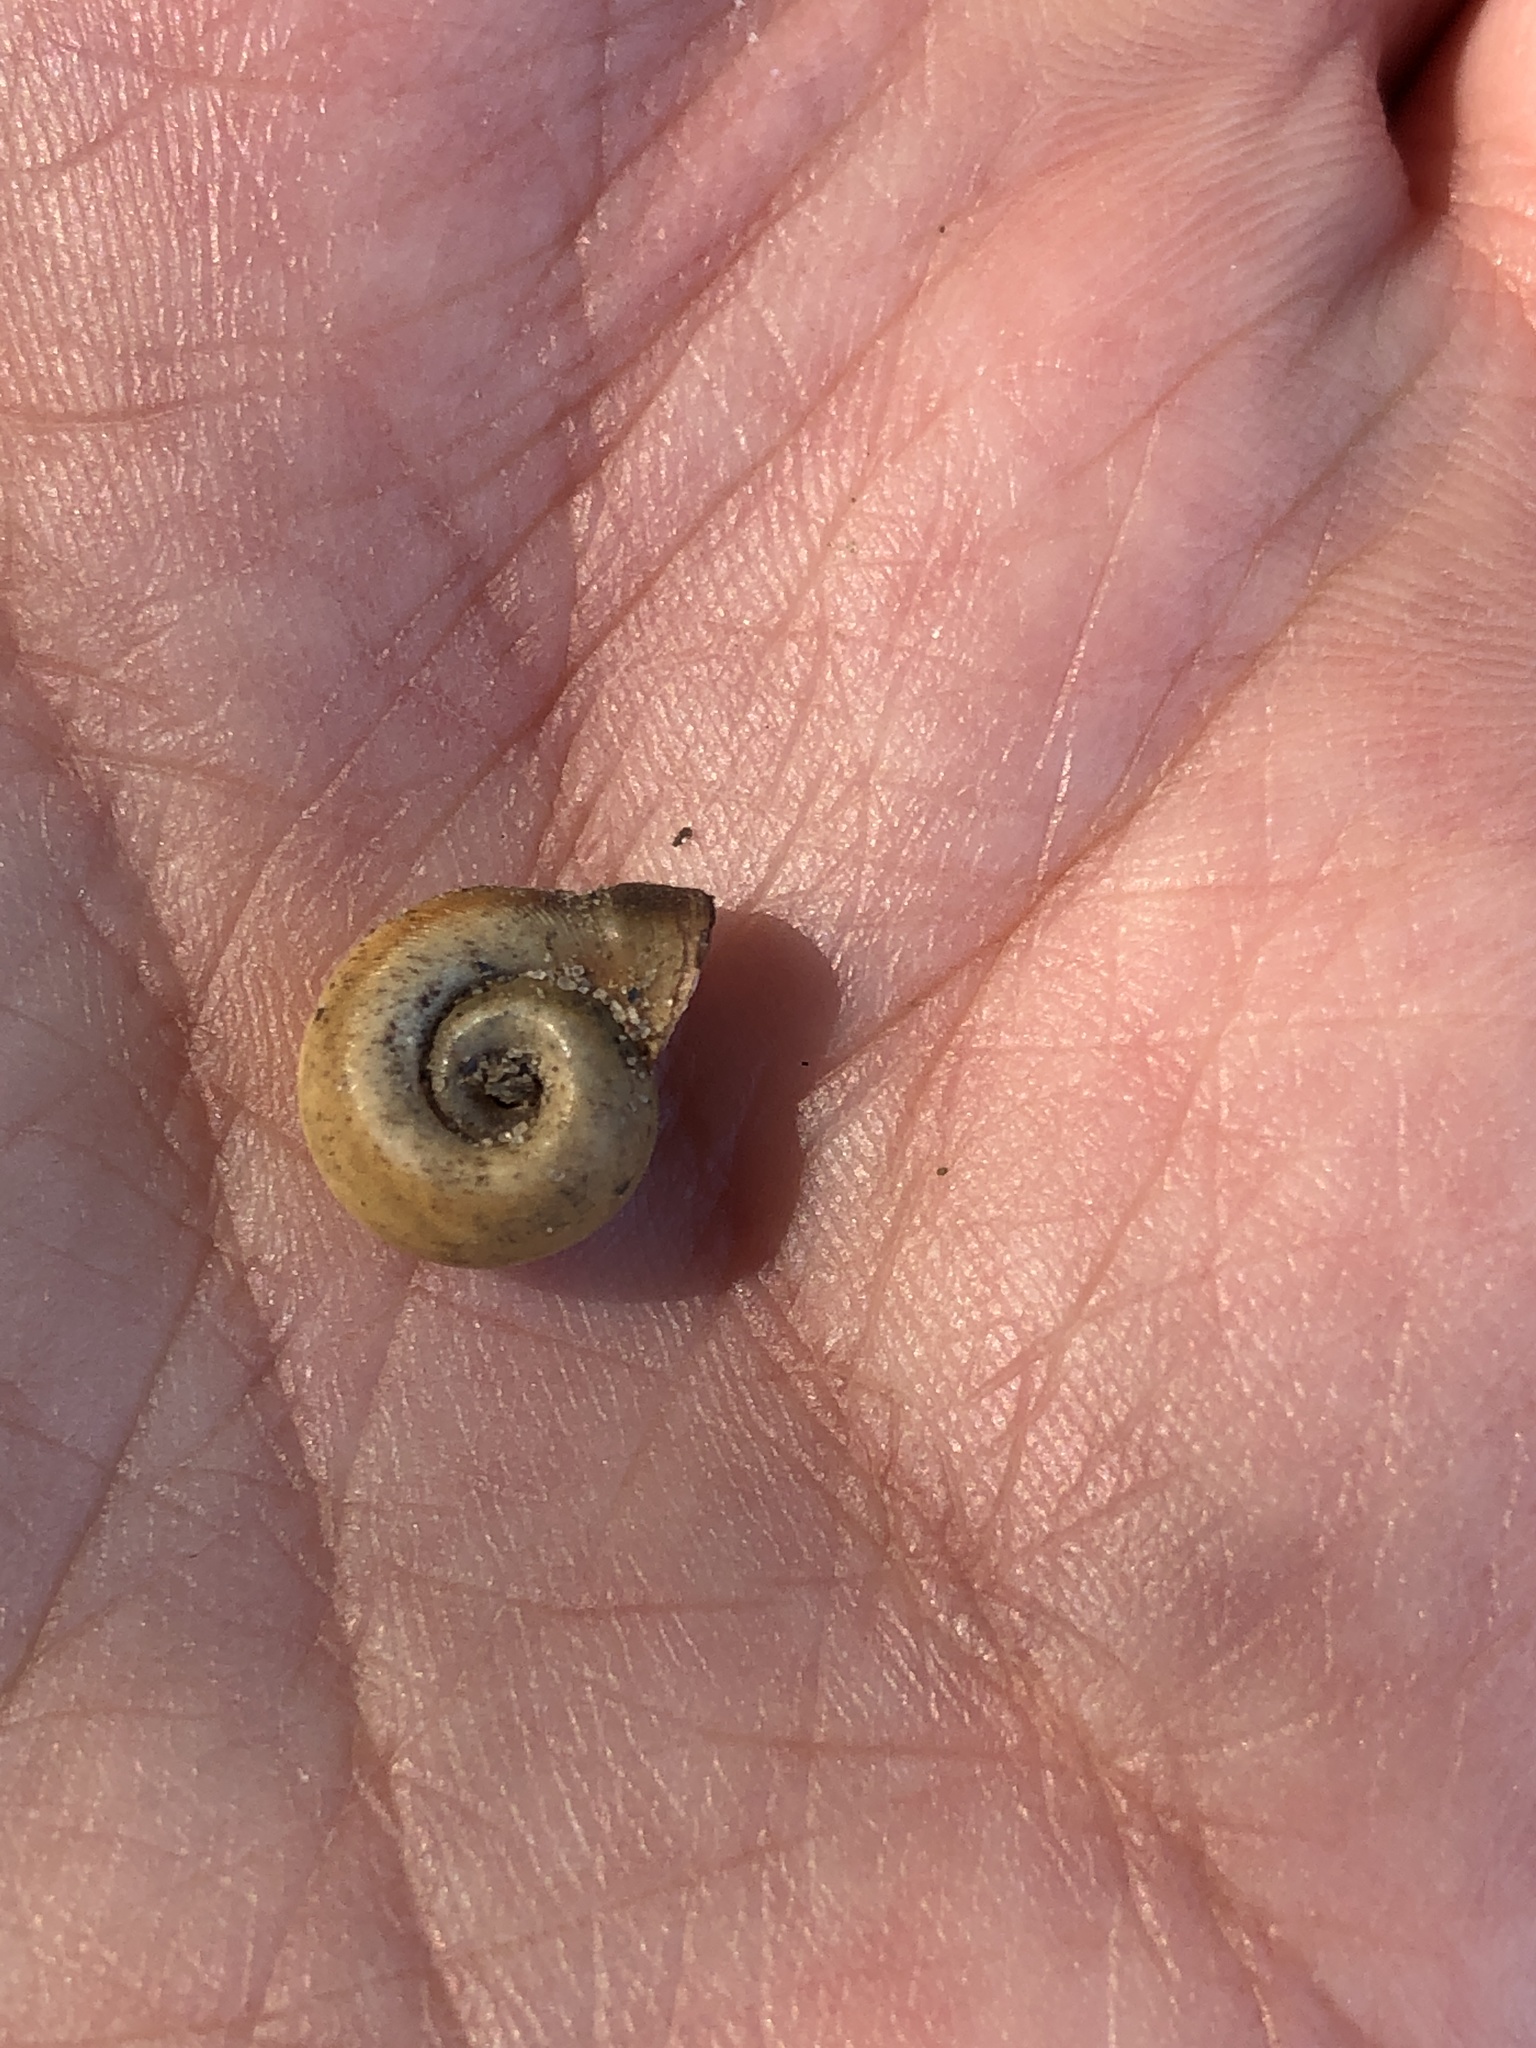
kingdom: Animalia
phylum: Mollusca
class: Gastropoda
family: Planorbidae
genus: Planorbella
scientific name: Planorbella campanulata
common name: Bellmouth ramshorn
